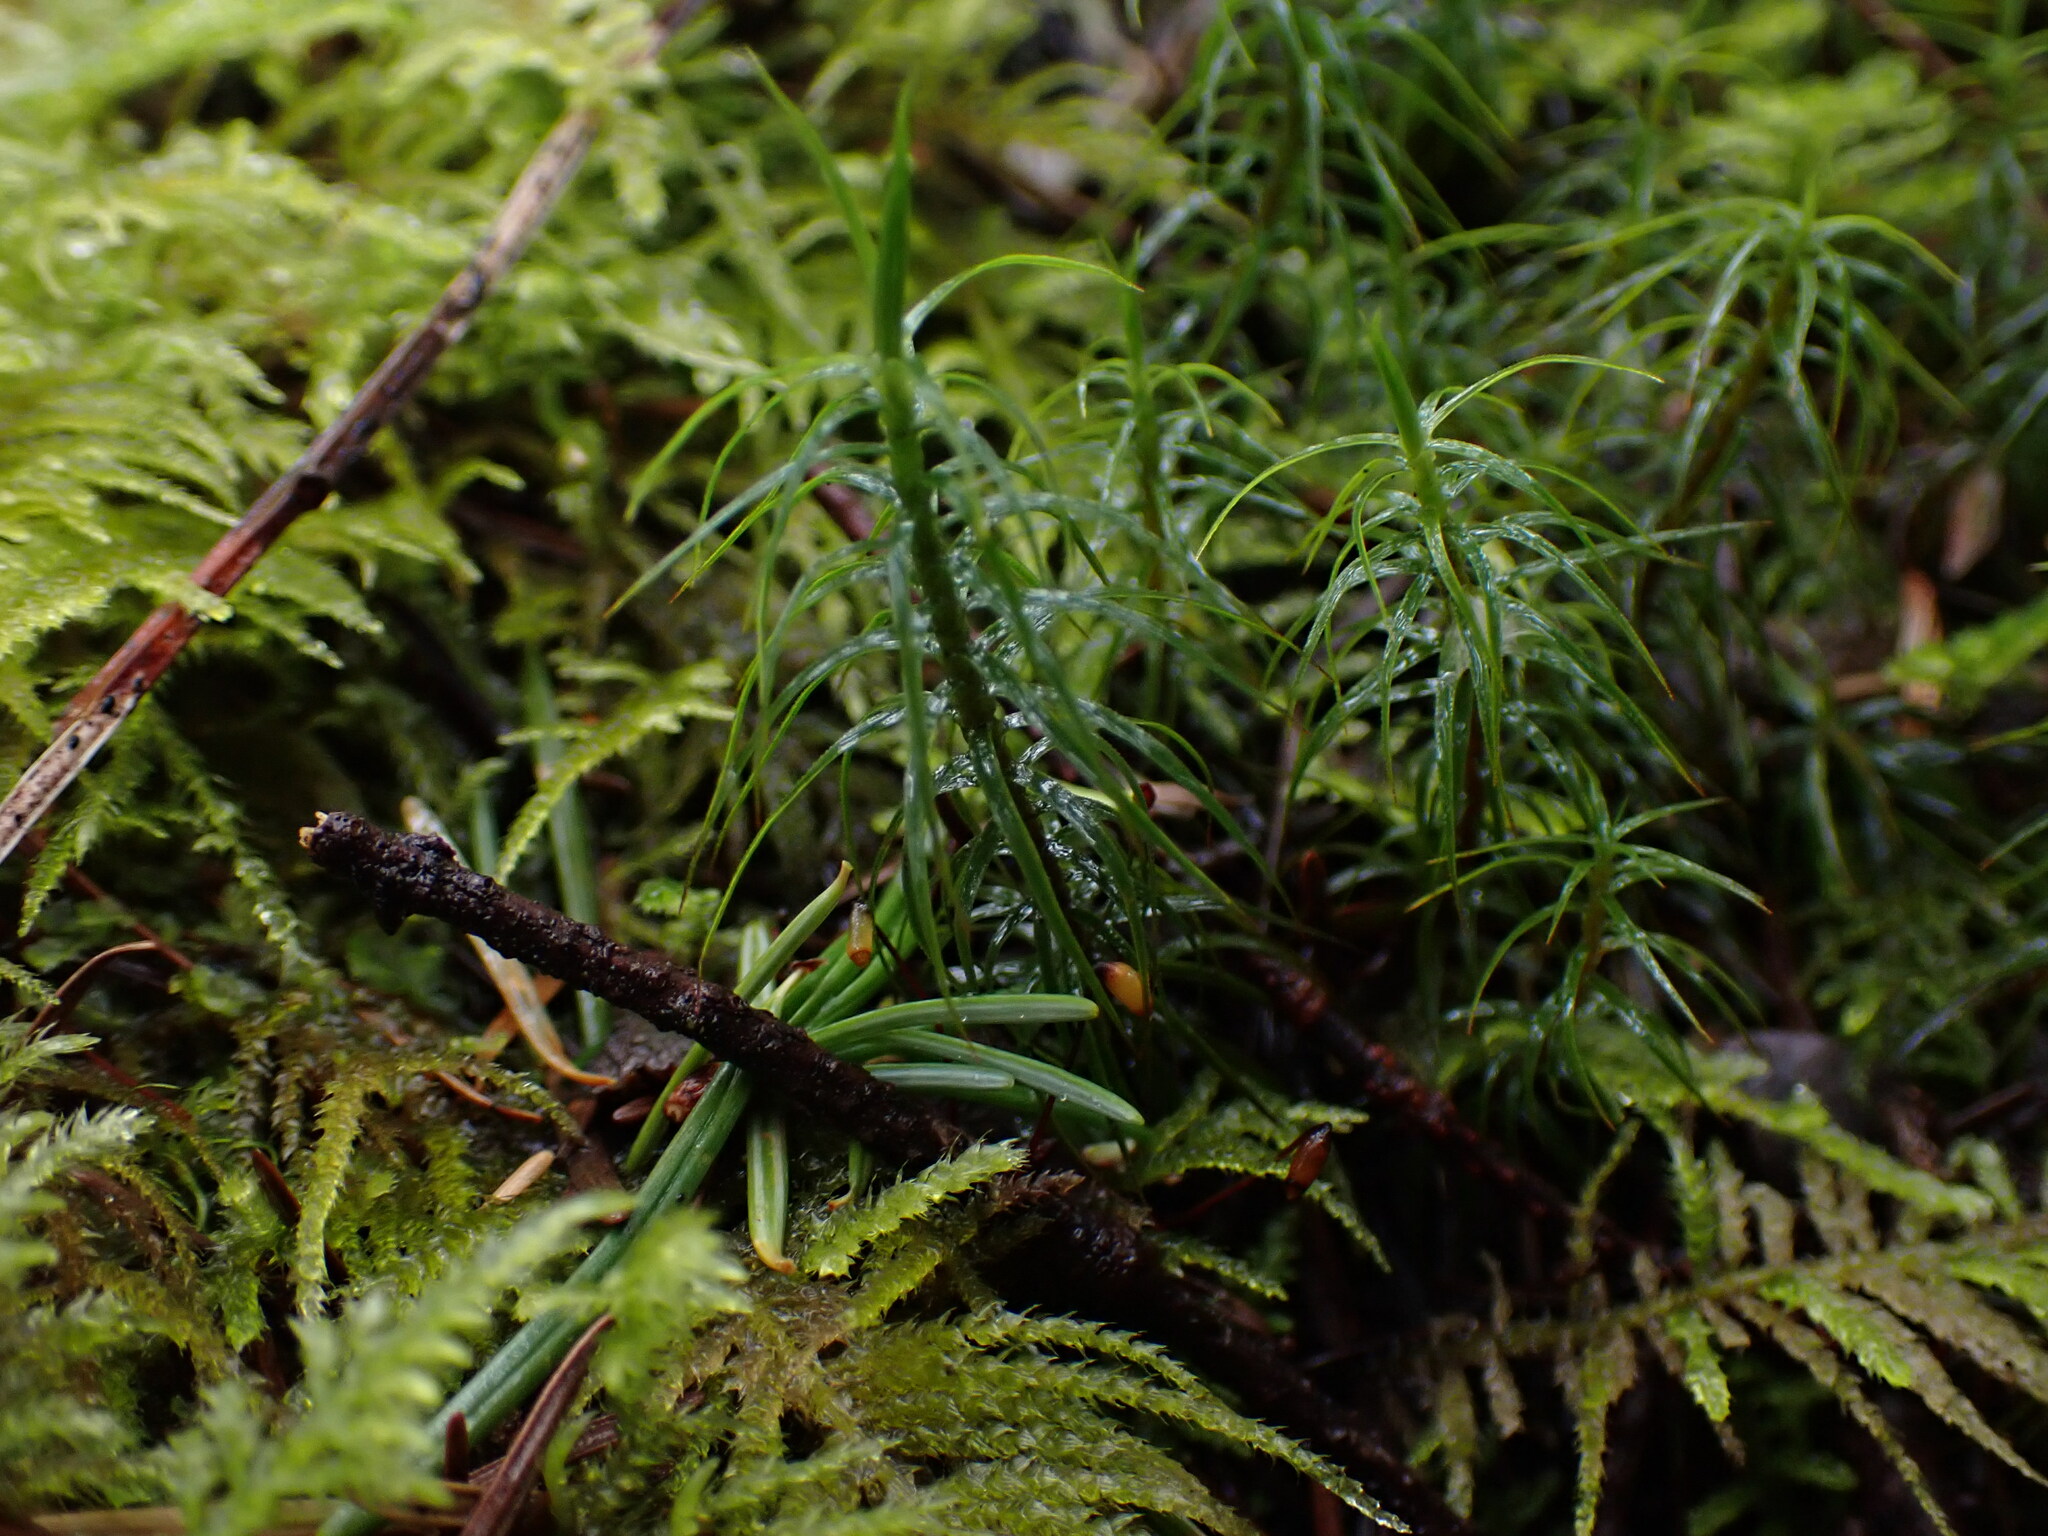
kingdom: Plantae
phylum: Bryophyta
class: Polytrichopsida
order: Polytrichales
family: Polytrichaceae
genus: Polytrichastrum
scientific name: Polytrichastrum alpinum
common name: Alpine haircap
